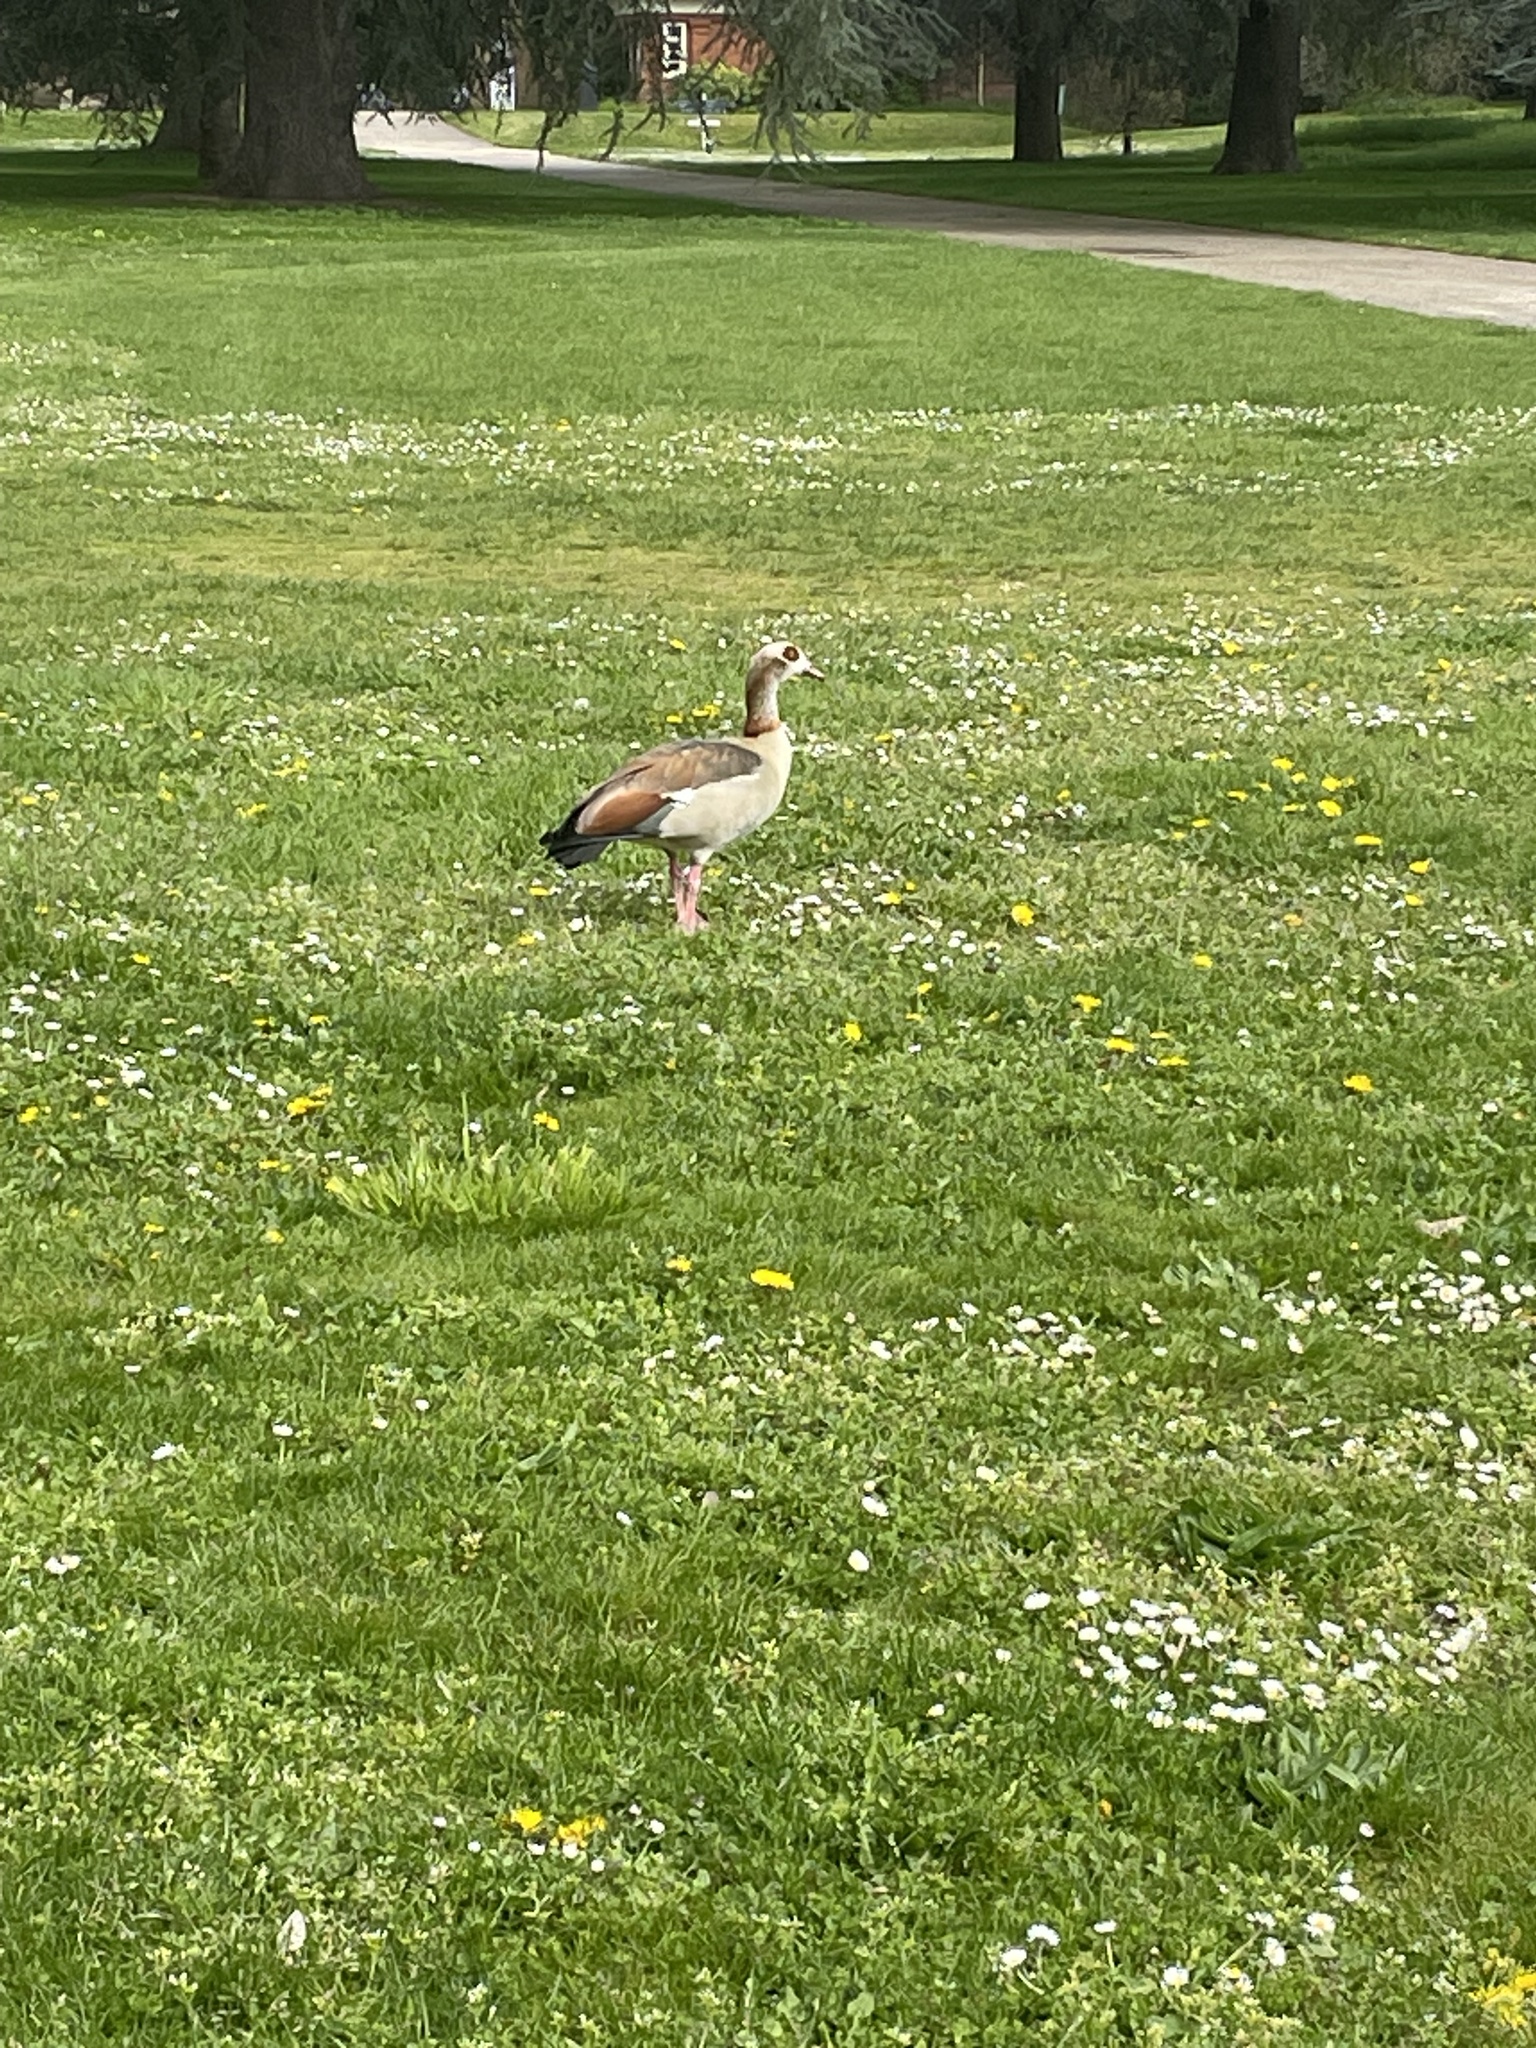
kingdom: Animalia
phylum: Chordata
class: Aves
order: Anseriformes
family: Anatidae
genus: Alopochen
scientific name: Alopochen aegyptiaca
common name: Egyptian goose
